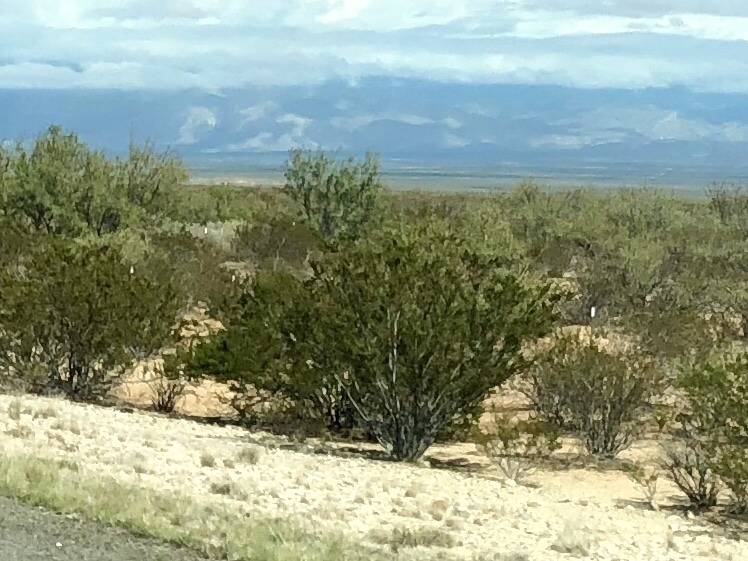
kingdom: Plantae
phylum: Tracheophyta
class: Magnoliopsida
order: Zygophyllales
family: Zygophyllaceae
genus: Larrea
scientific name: Larrea tridentata
